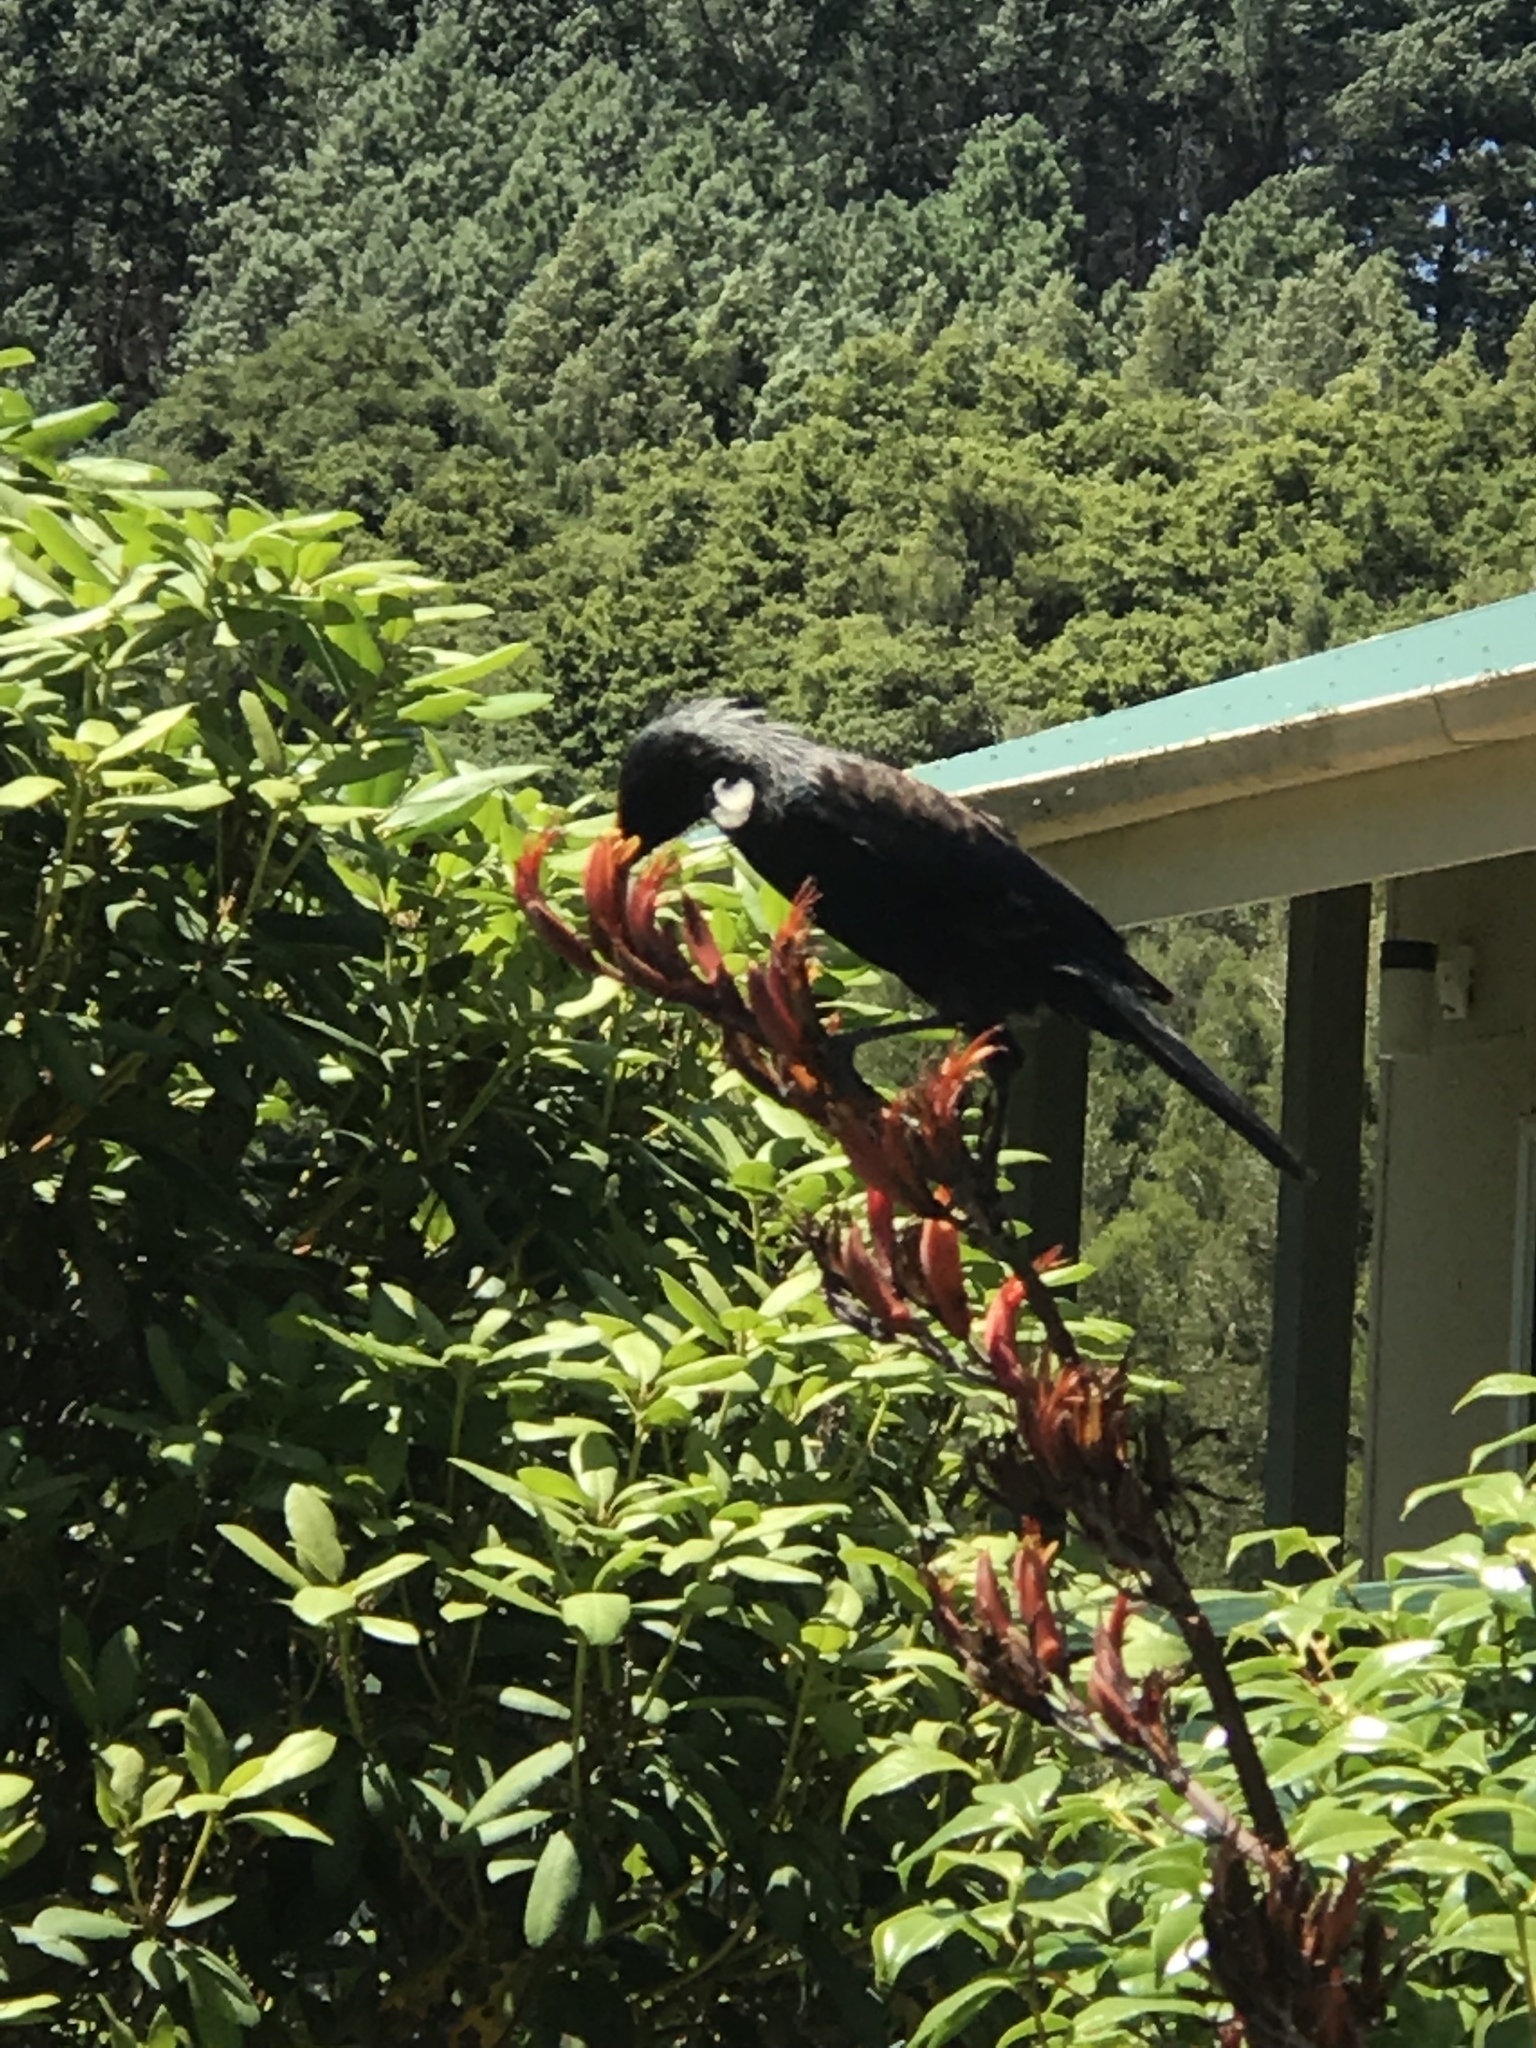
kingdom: Animalia
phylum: Chordata
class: Aves
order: Passeriformes
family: Meliphagidae
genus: Prosthemadera
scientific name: Prosthemadera novaeseelandiae
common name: Tui
